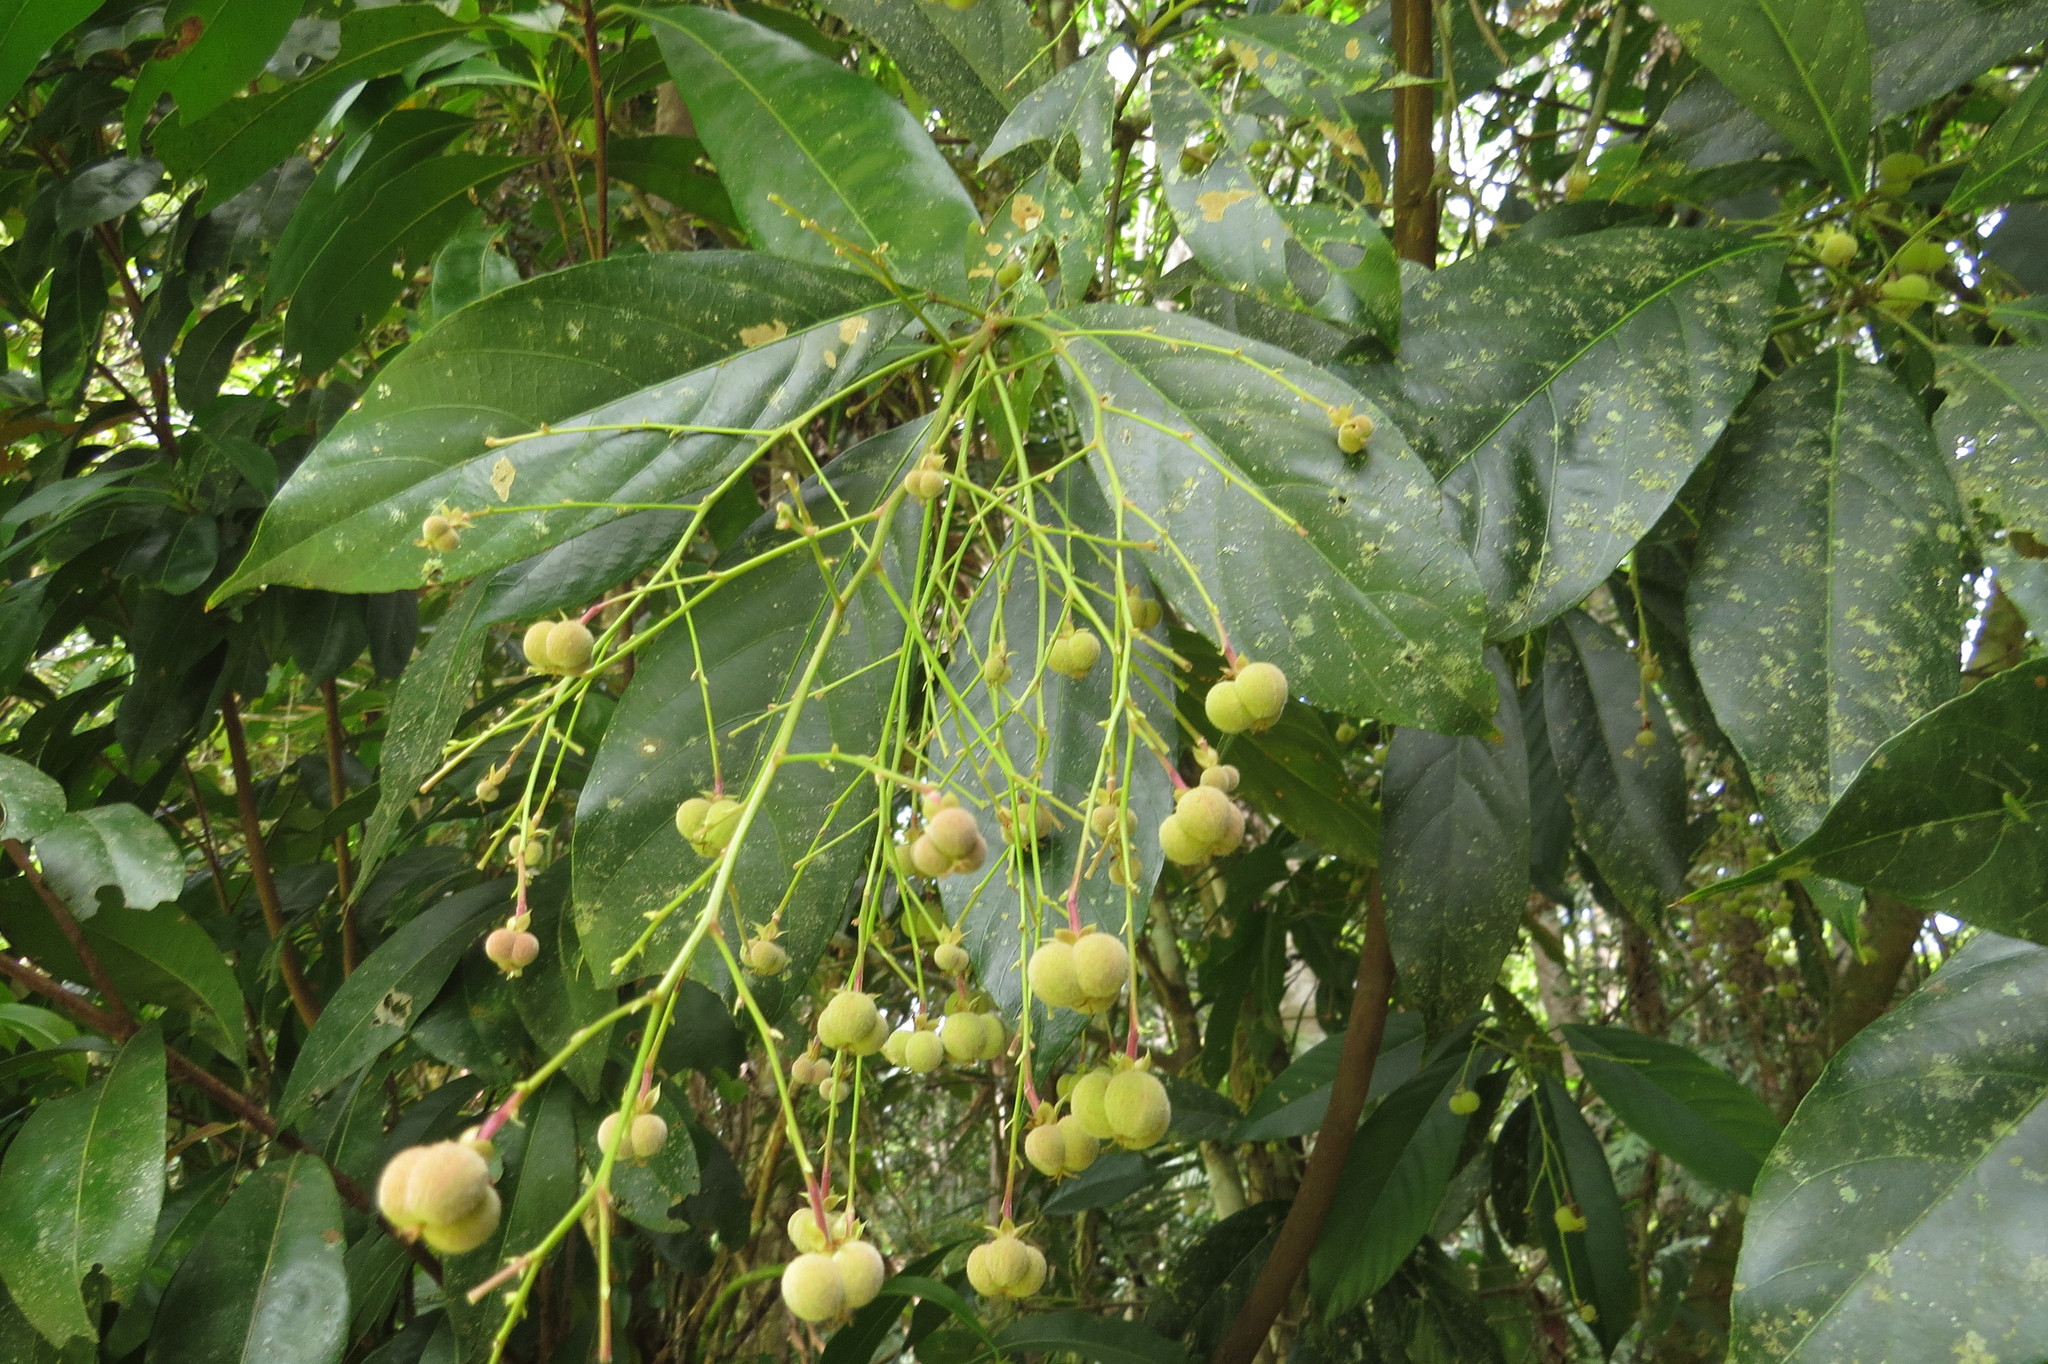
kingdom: Plantae
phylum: Tracheophyta
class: Magnoliopsida
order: Malpighiales
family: Euphorbiaceae
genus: Rockinghamia
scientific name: Rockinghamia angustifolia
